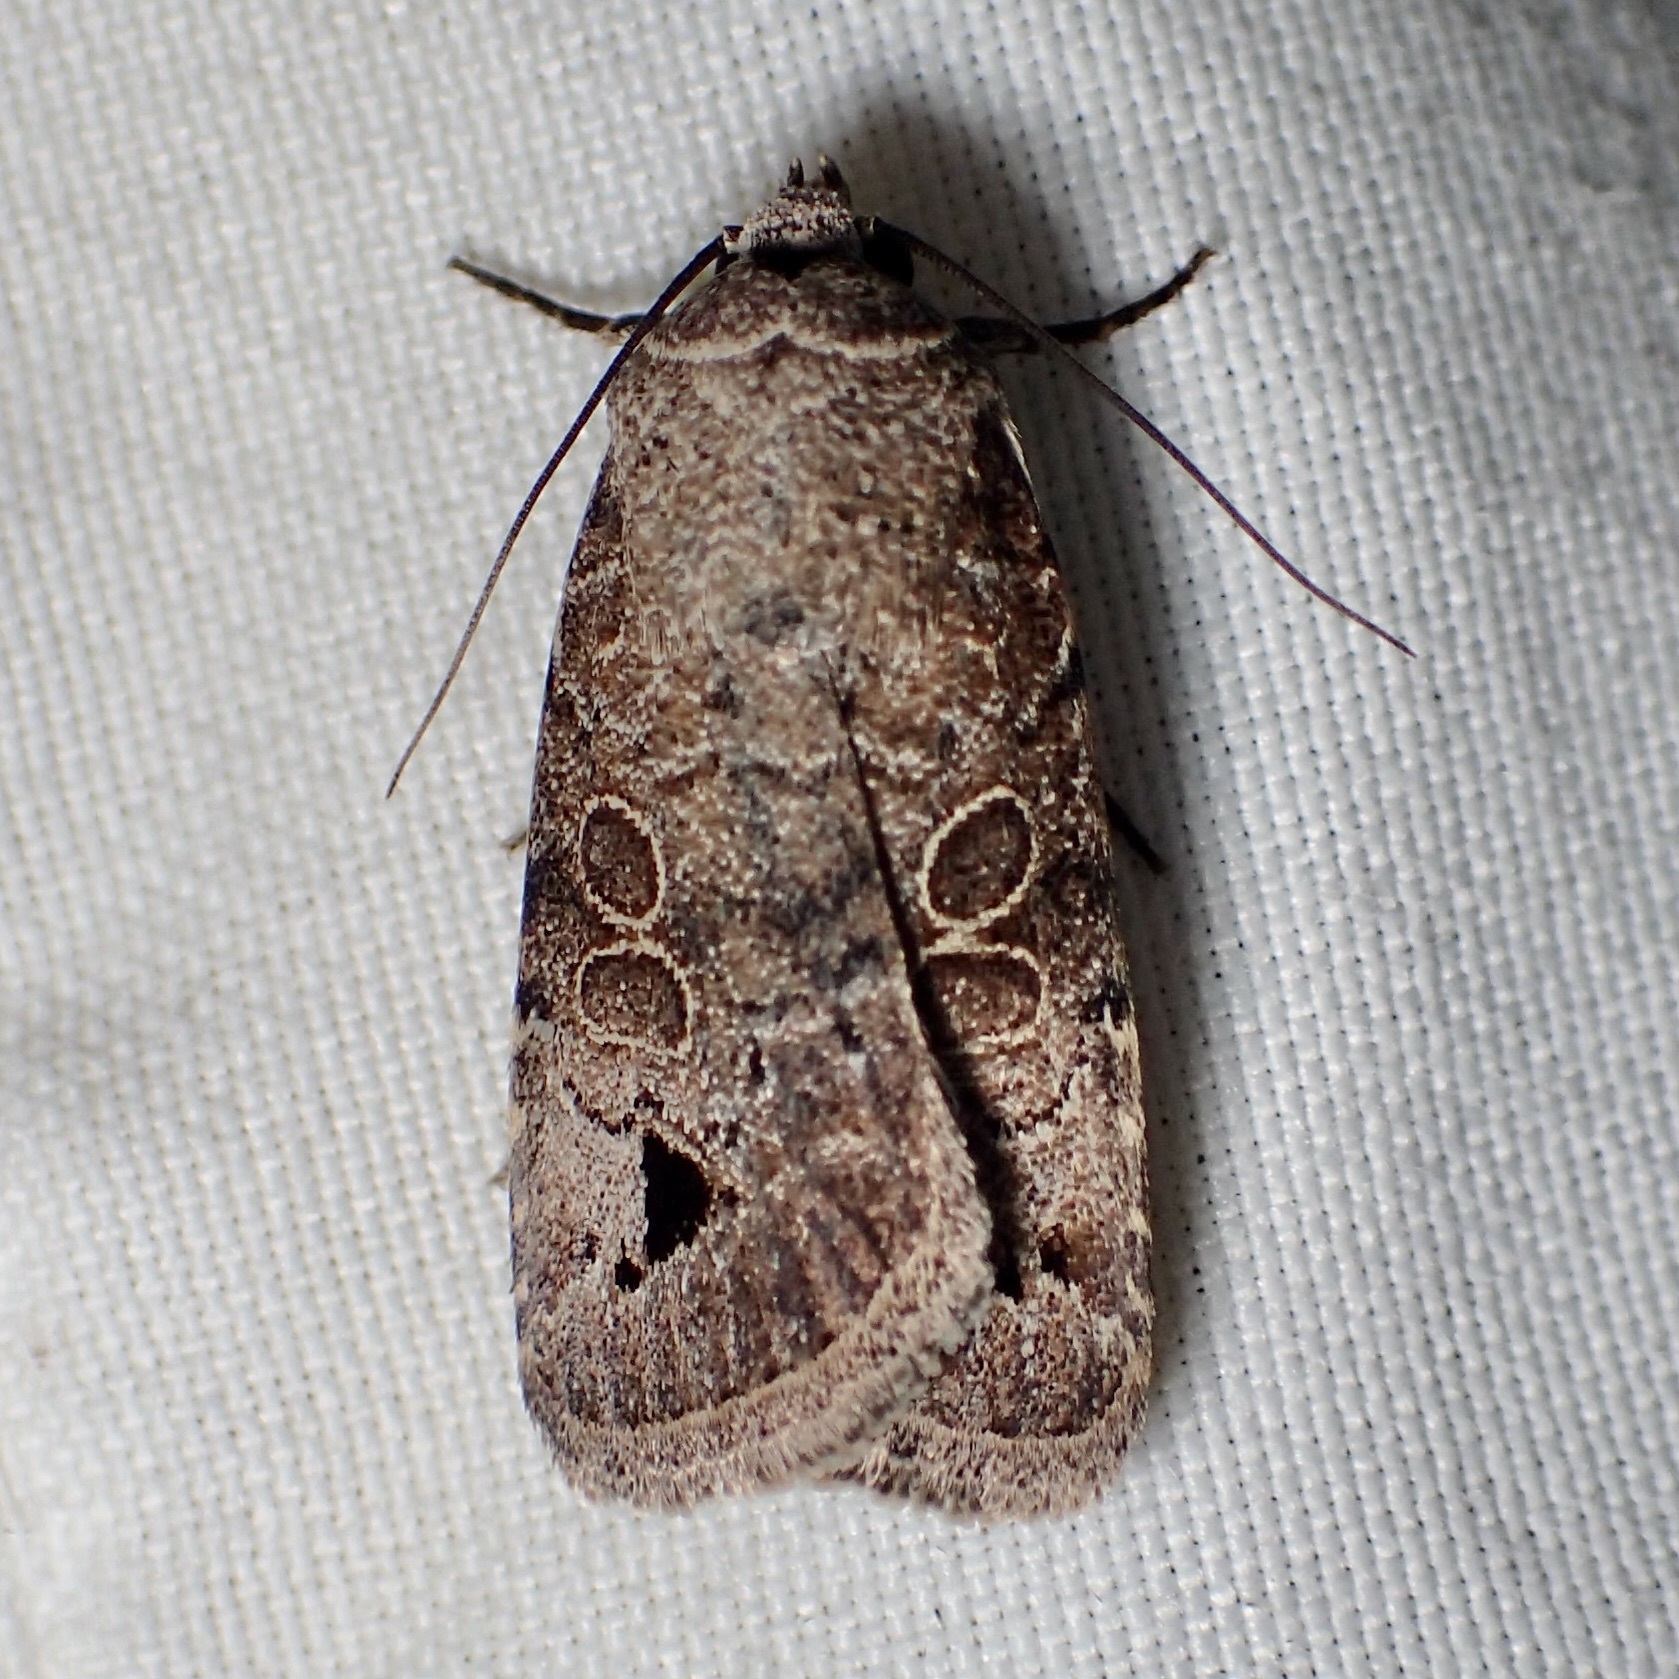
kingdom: Animalia
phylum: Arthropoda
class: Insecta
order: Lepidoptera
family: Noctuidae
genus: Anorthodes
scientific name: Anorthodes triquetra
